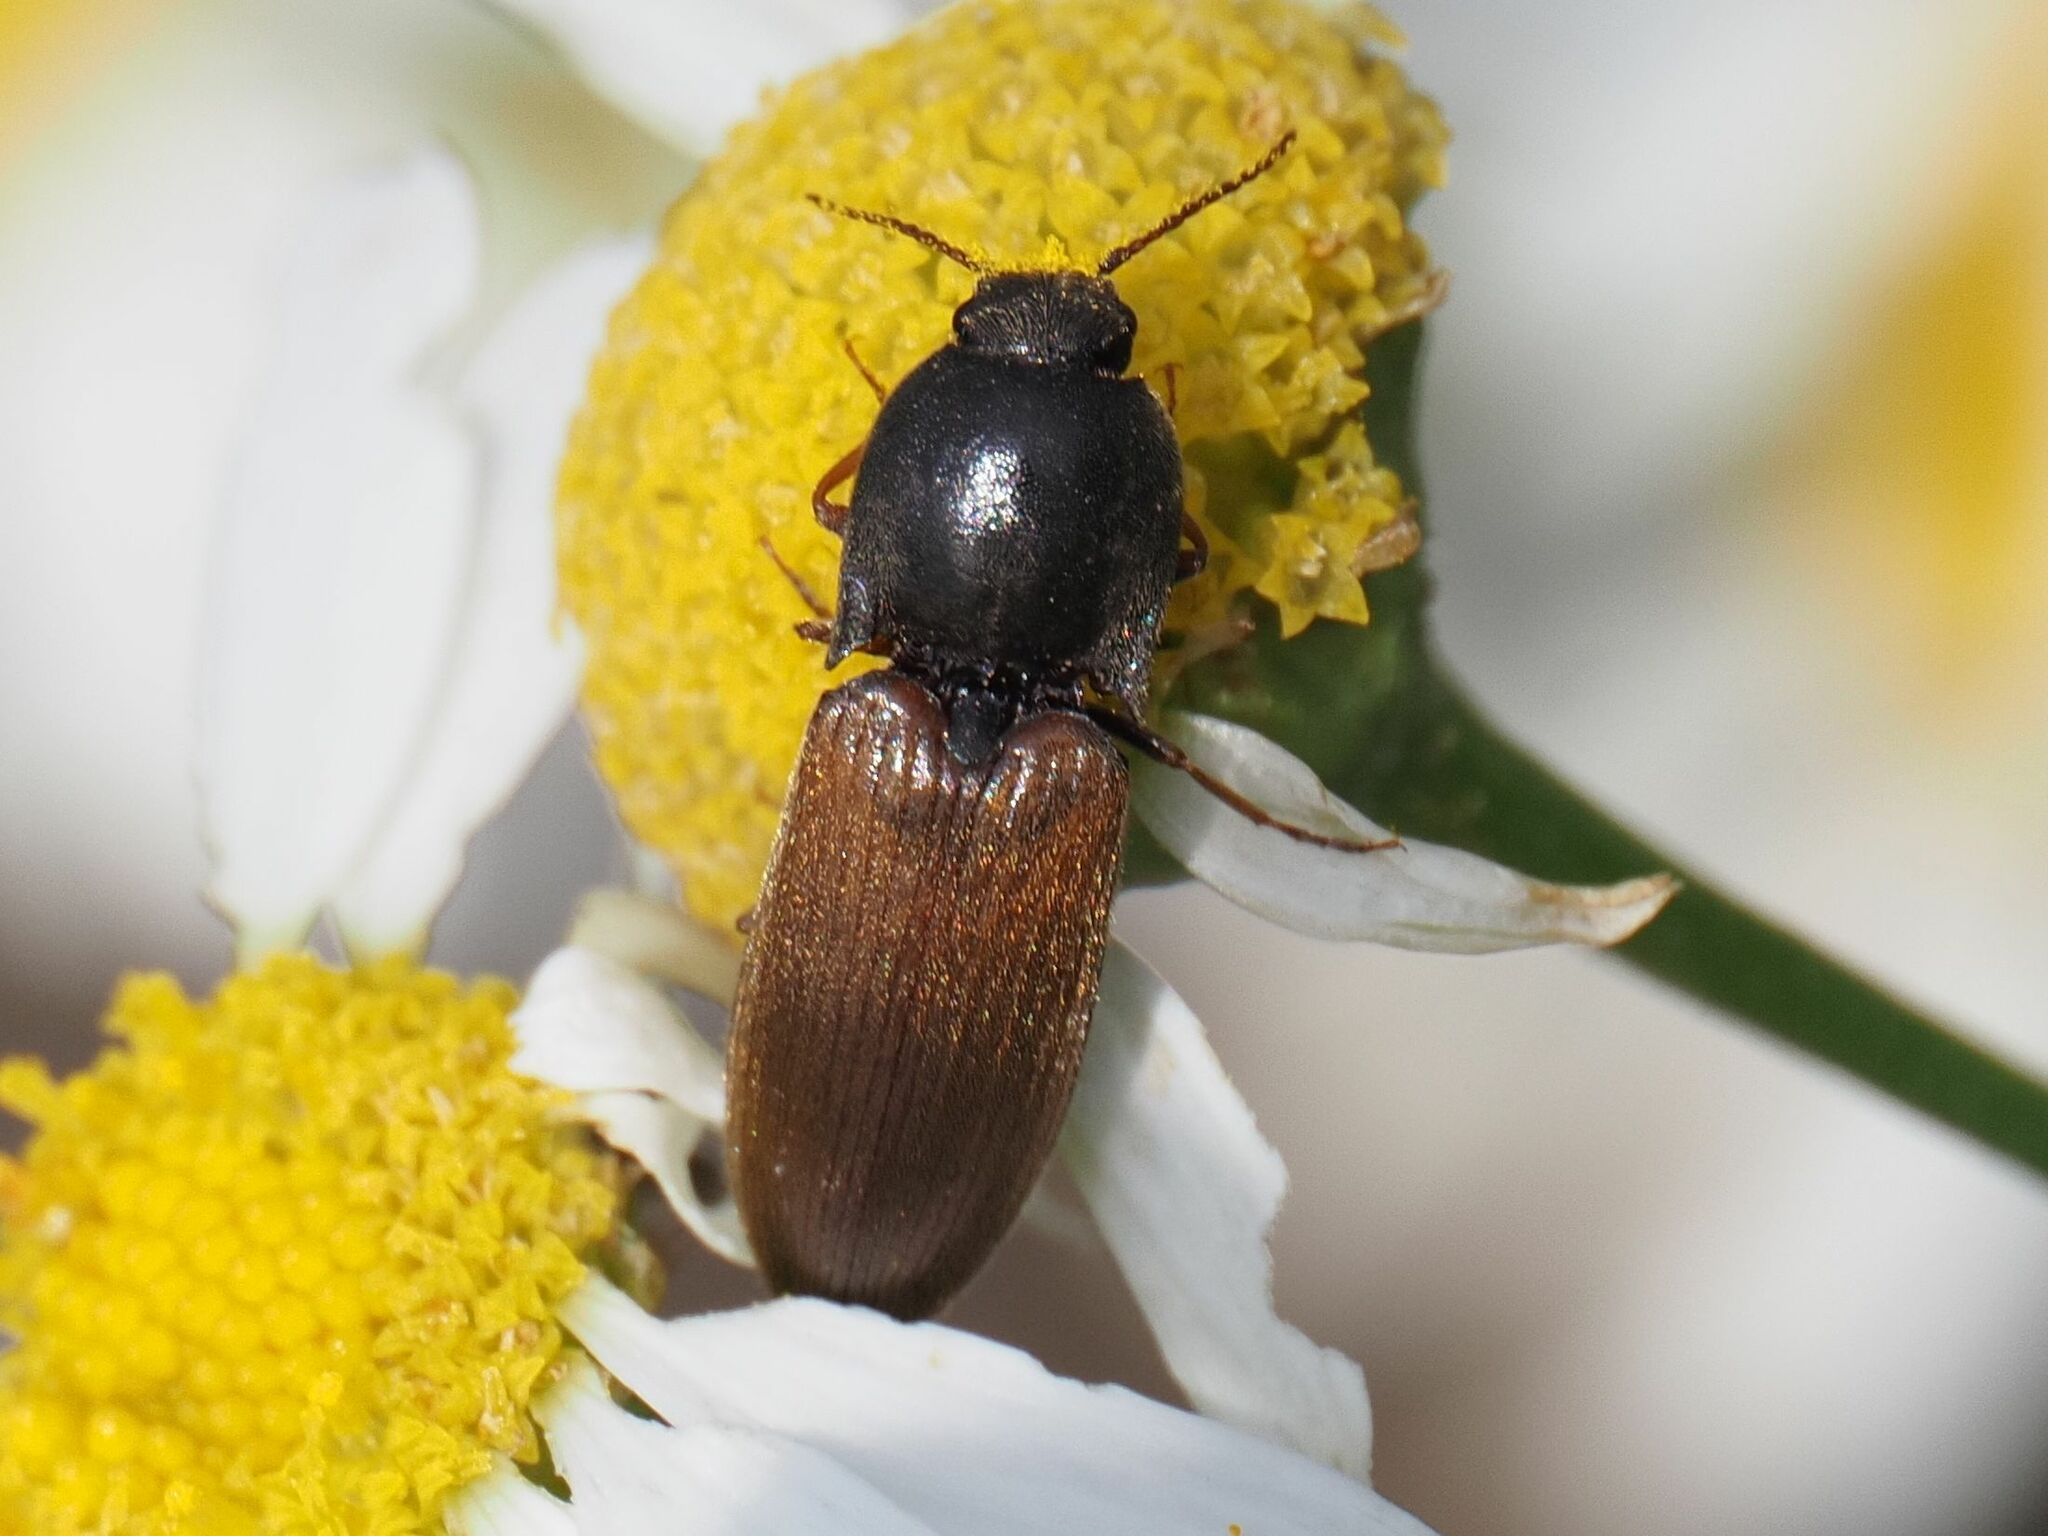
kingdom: Animalia
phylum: Arthropoda
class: Insecta
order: Coleoptera
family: Elateridae
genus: Agriotes
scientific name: Agriotes ustulatus
